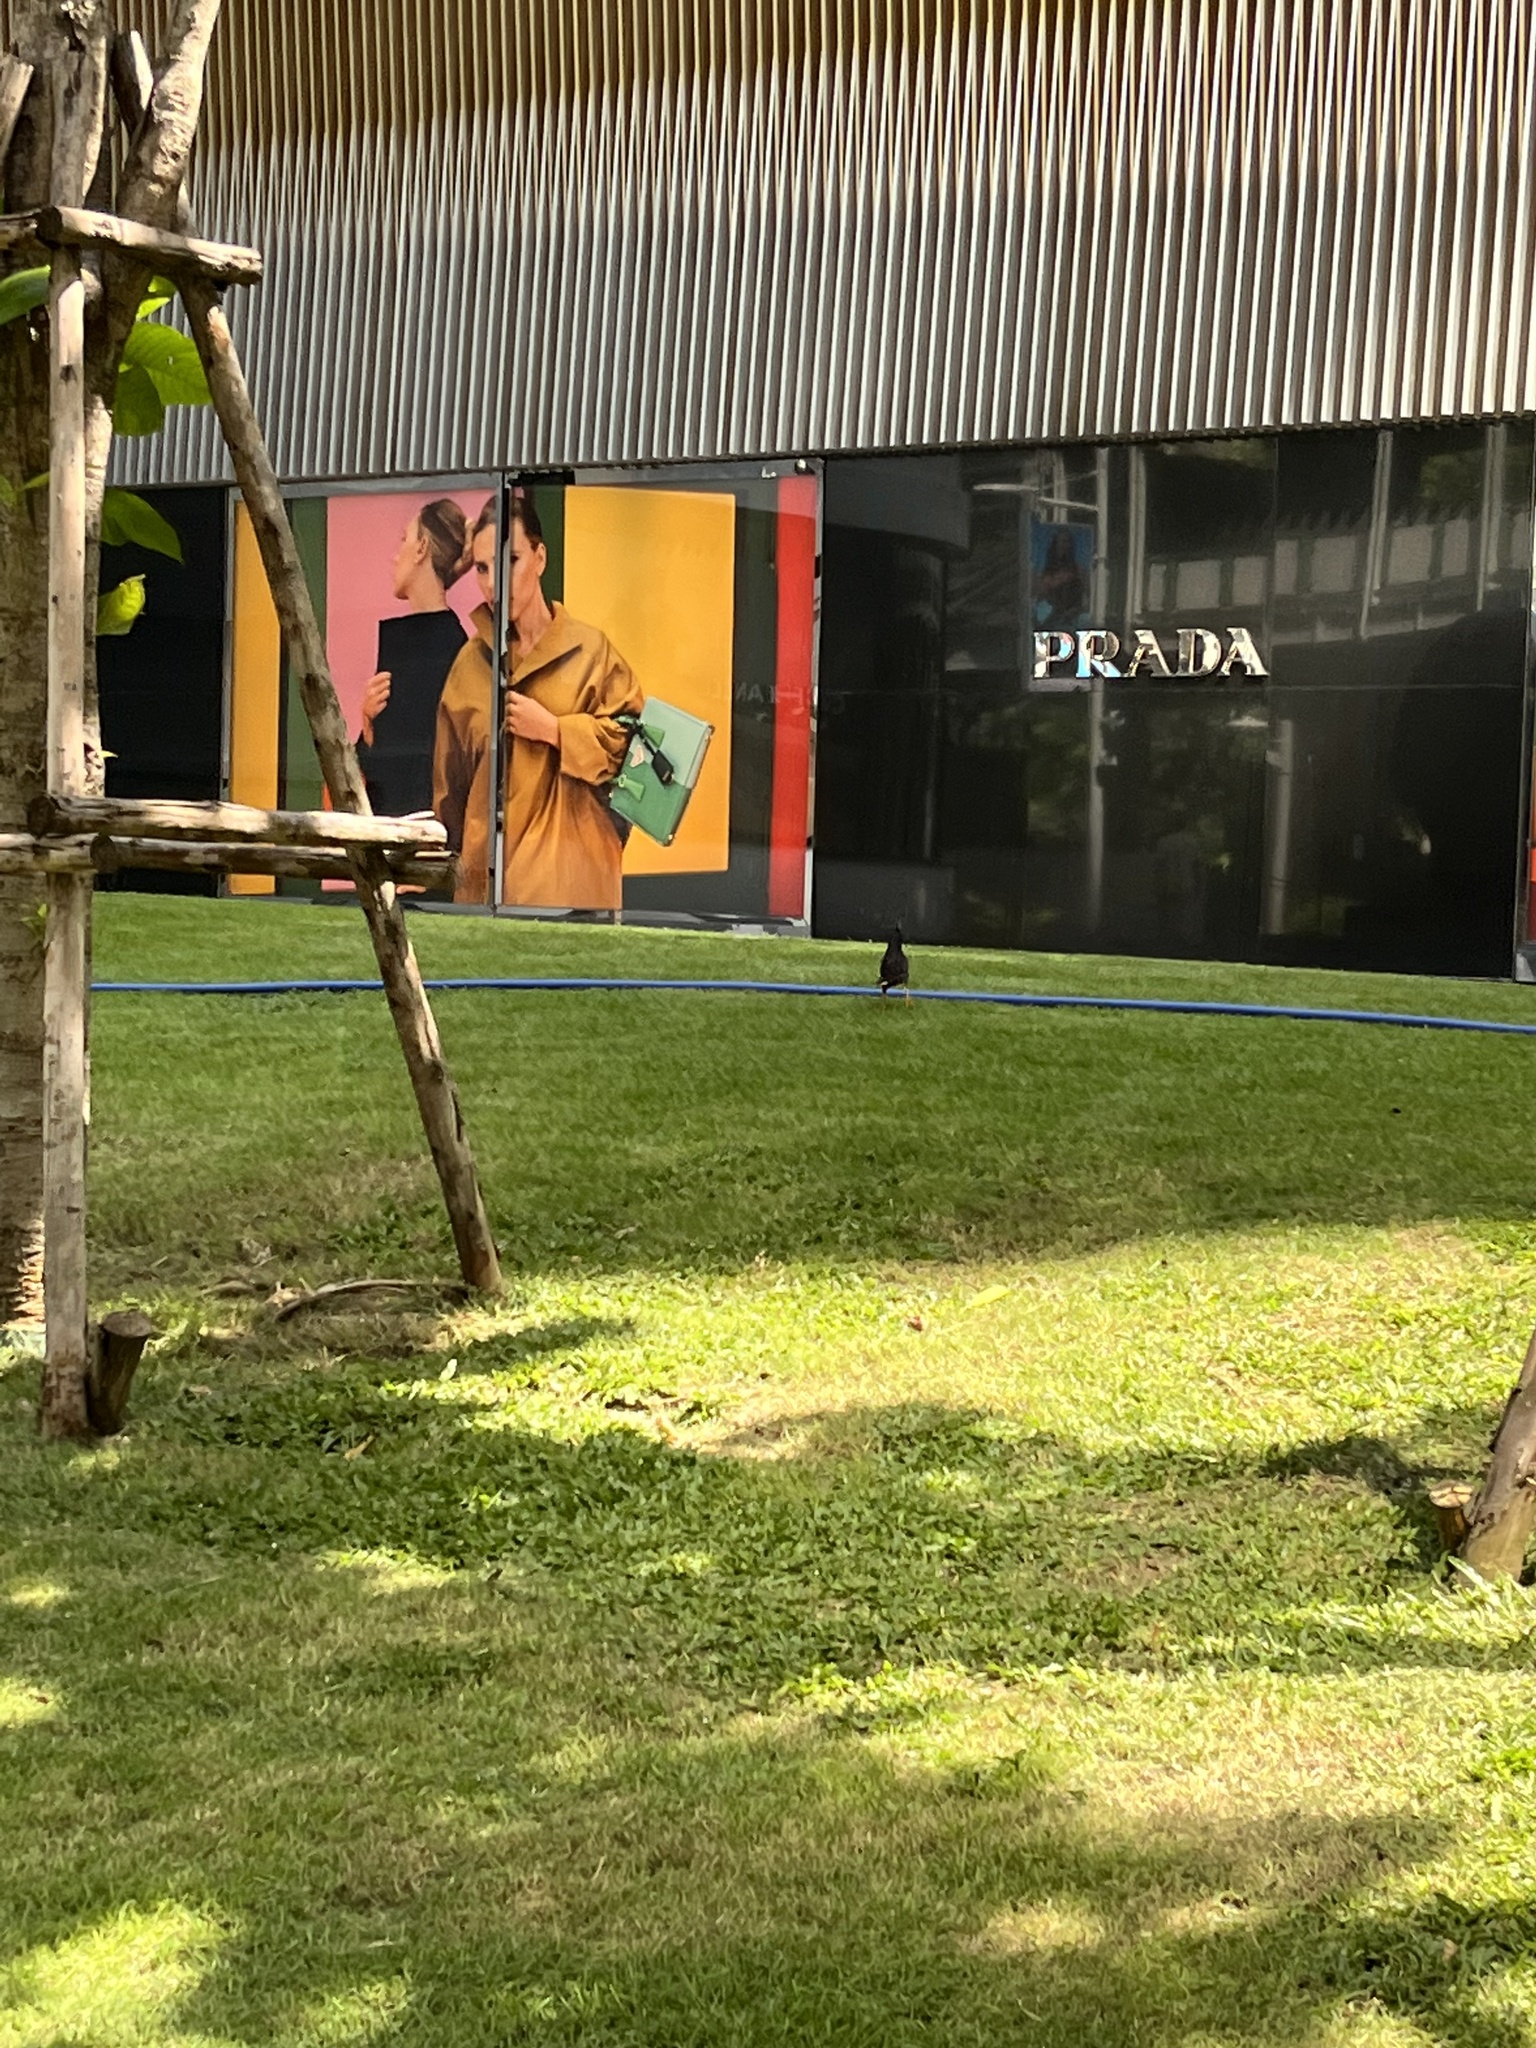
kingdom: Animalia
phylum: Chordata
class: Aves
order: Passeriformes
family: Sturnidae
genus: Acridotheres
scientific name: Acridotheres grandis
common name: Great myna
